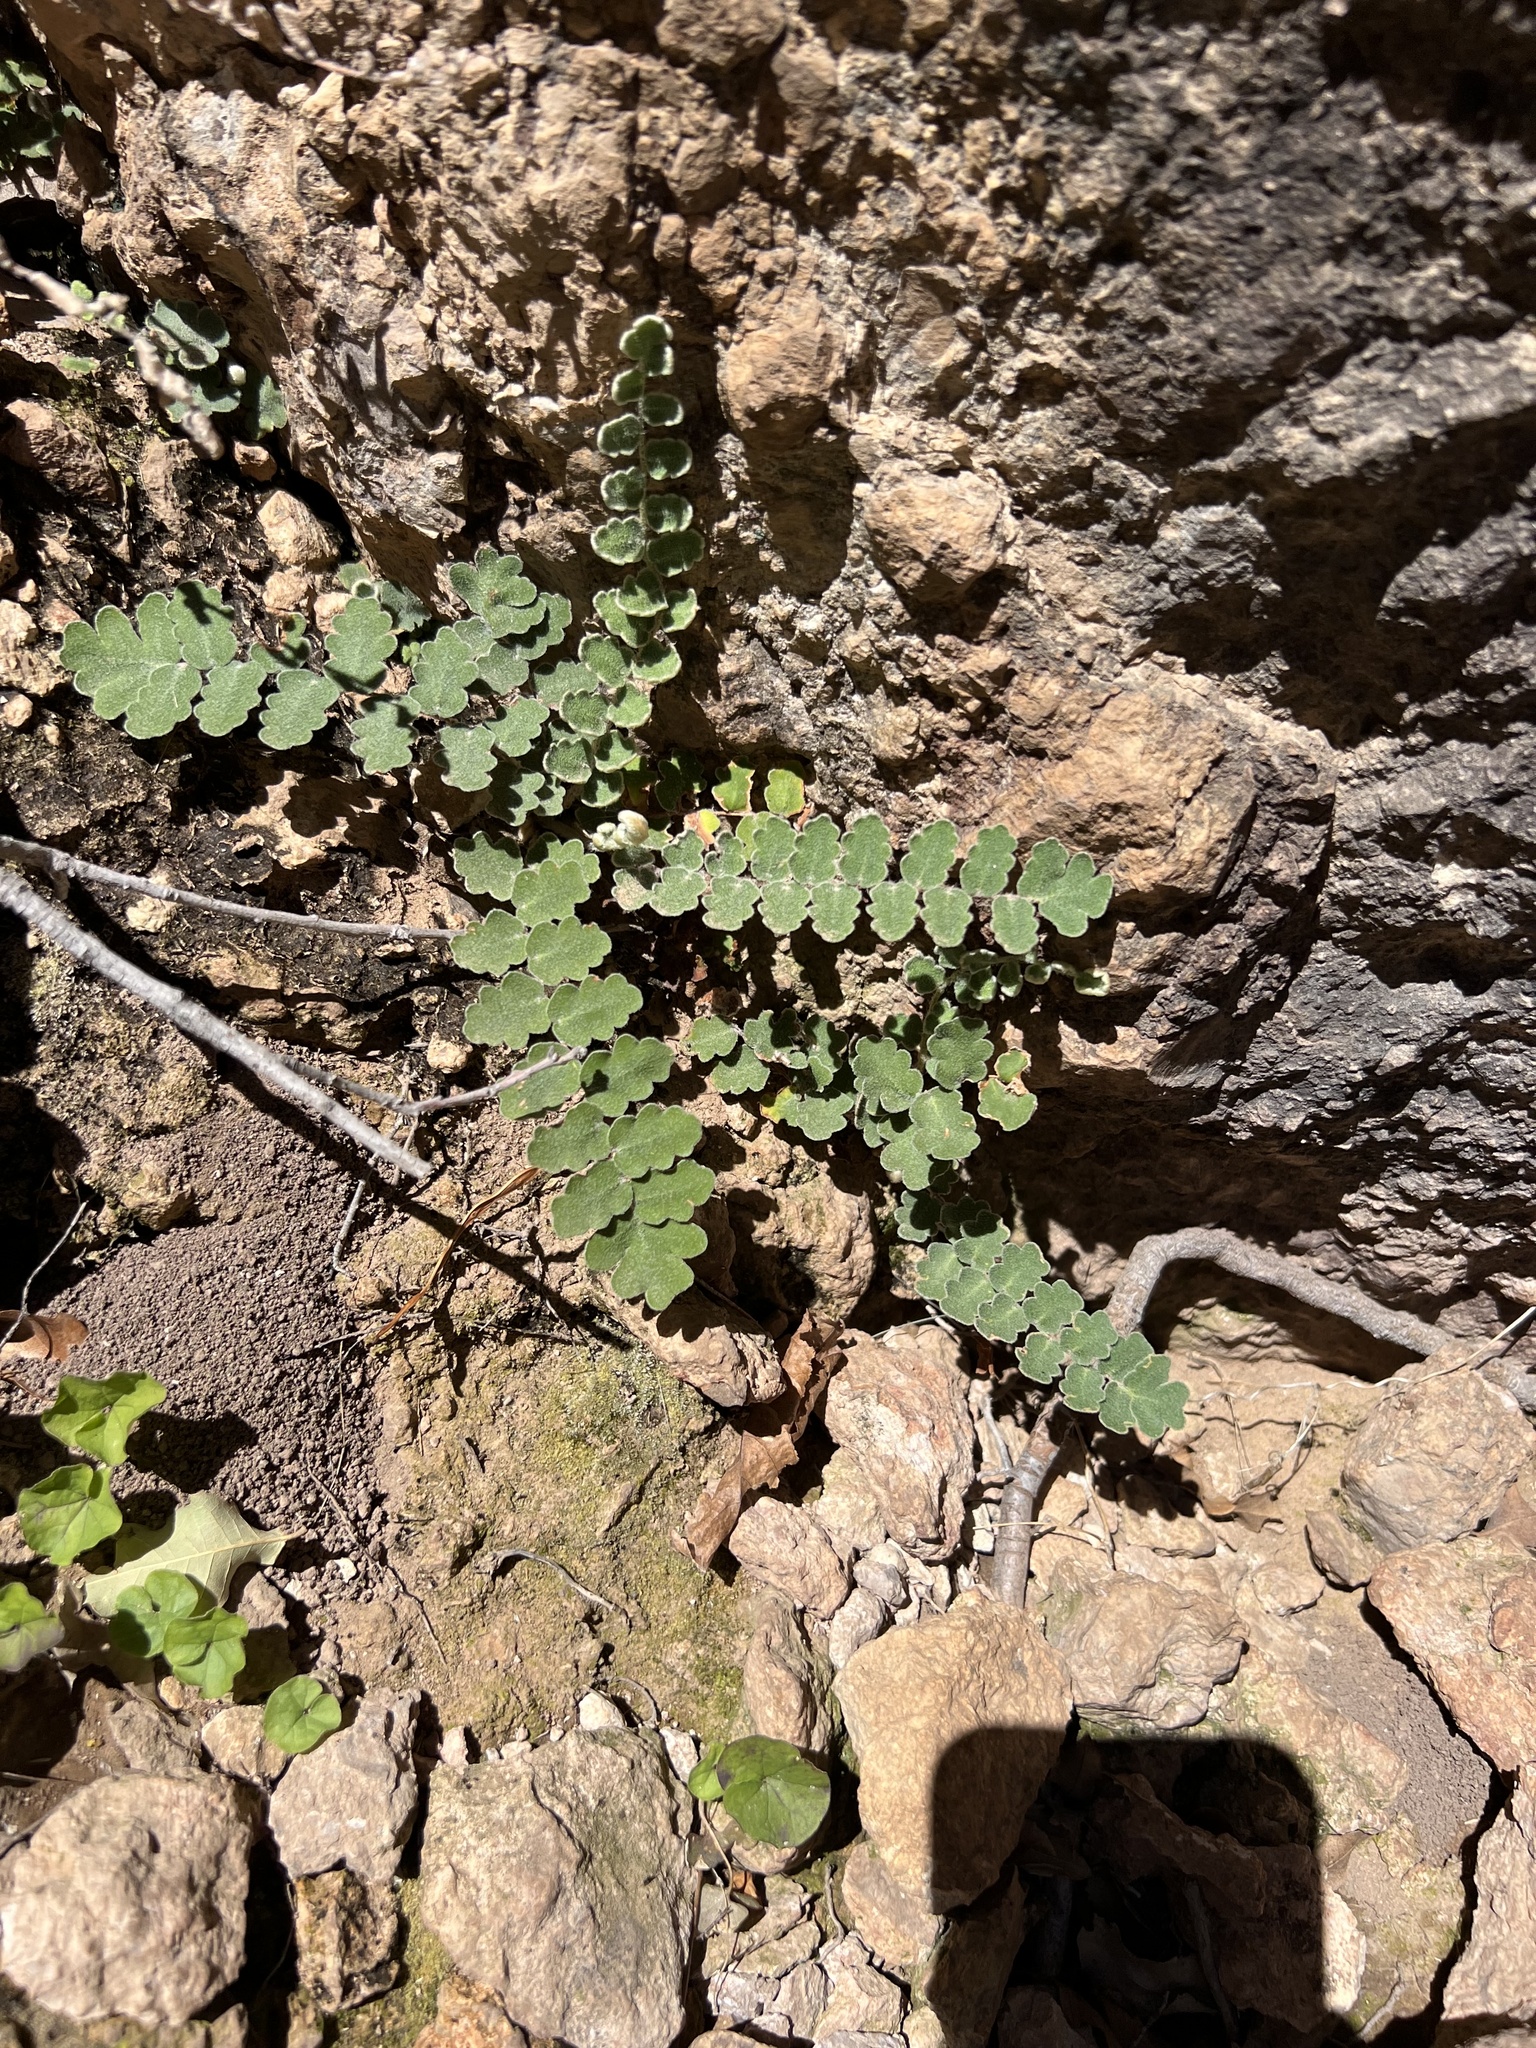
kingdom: Plantae
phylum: Tracheophyta
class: Polypodiopsida
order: Polypodiales
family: Pteridaceae
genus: Astrolepis
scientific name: Astrolepis sinuata
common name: Wavy scaly cloakfern
